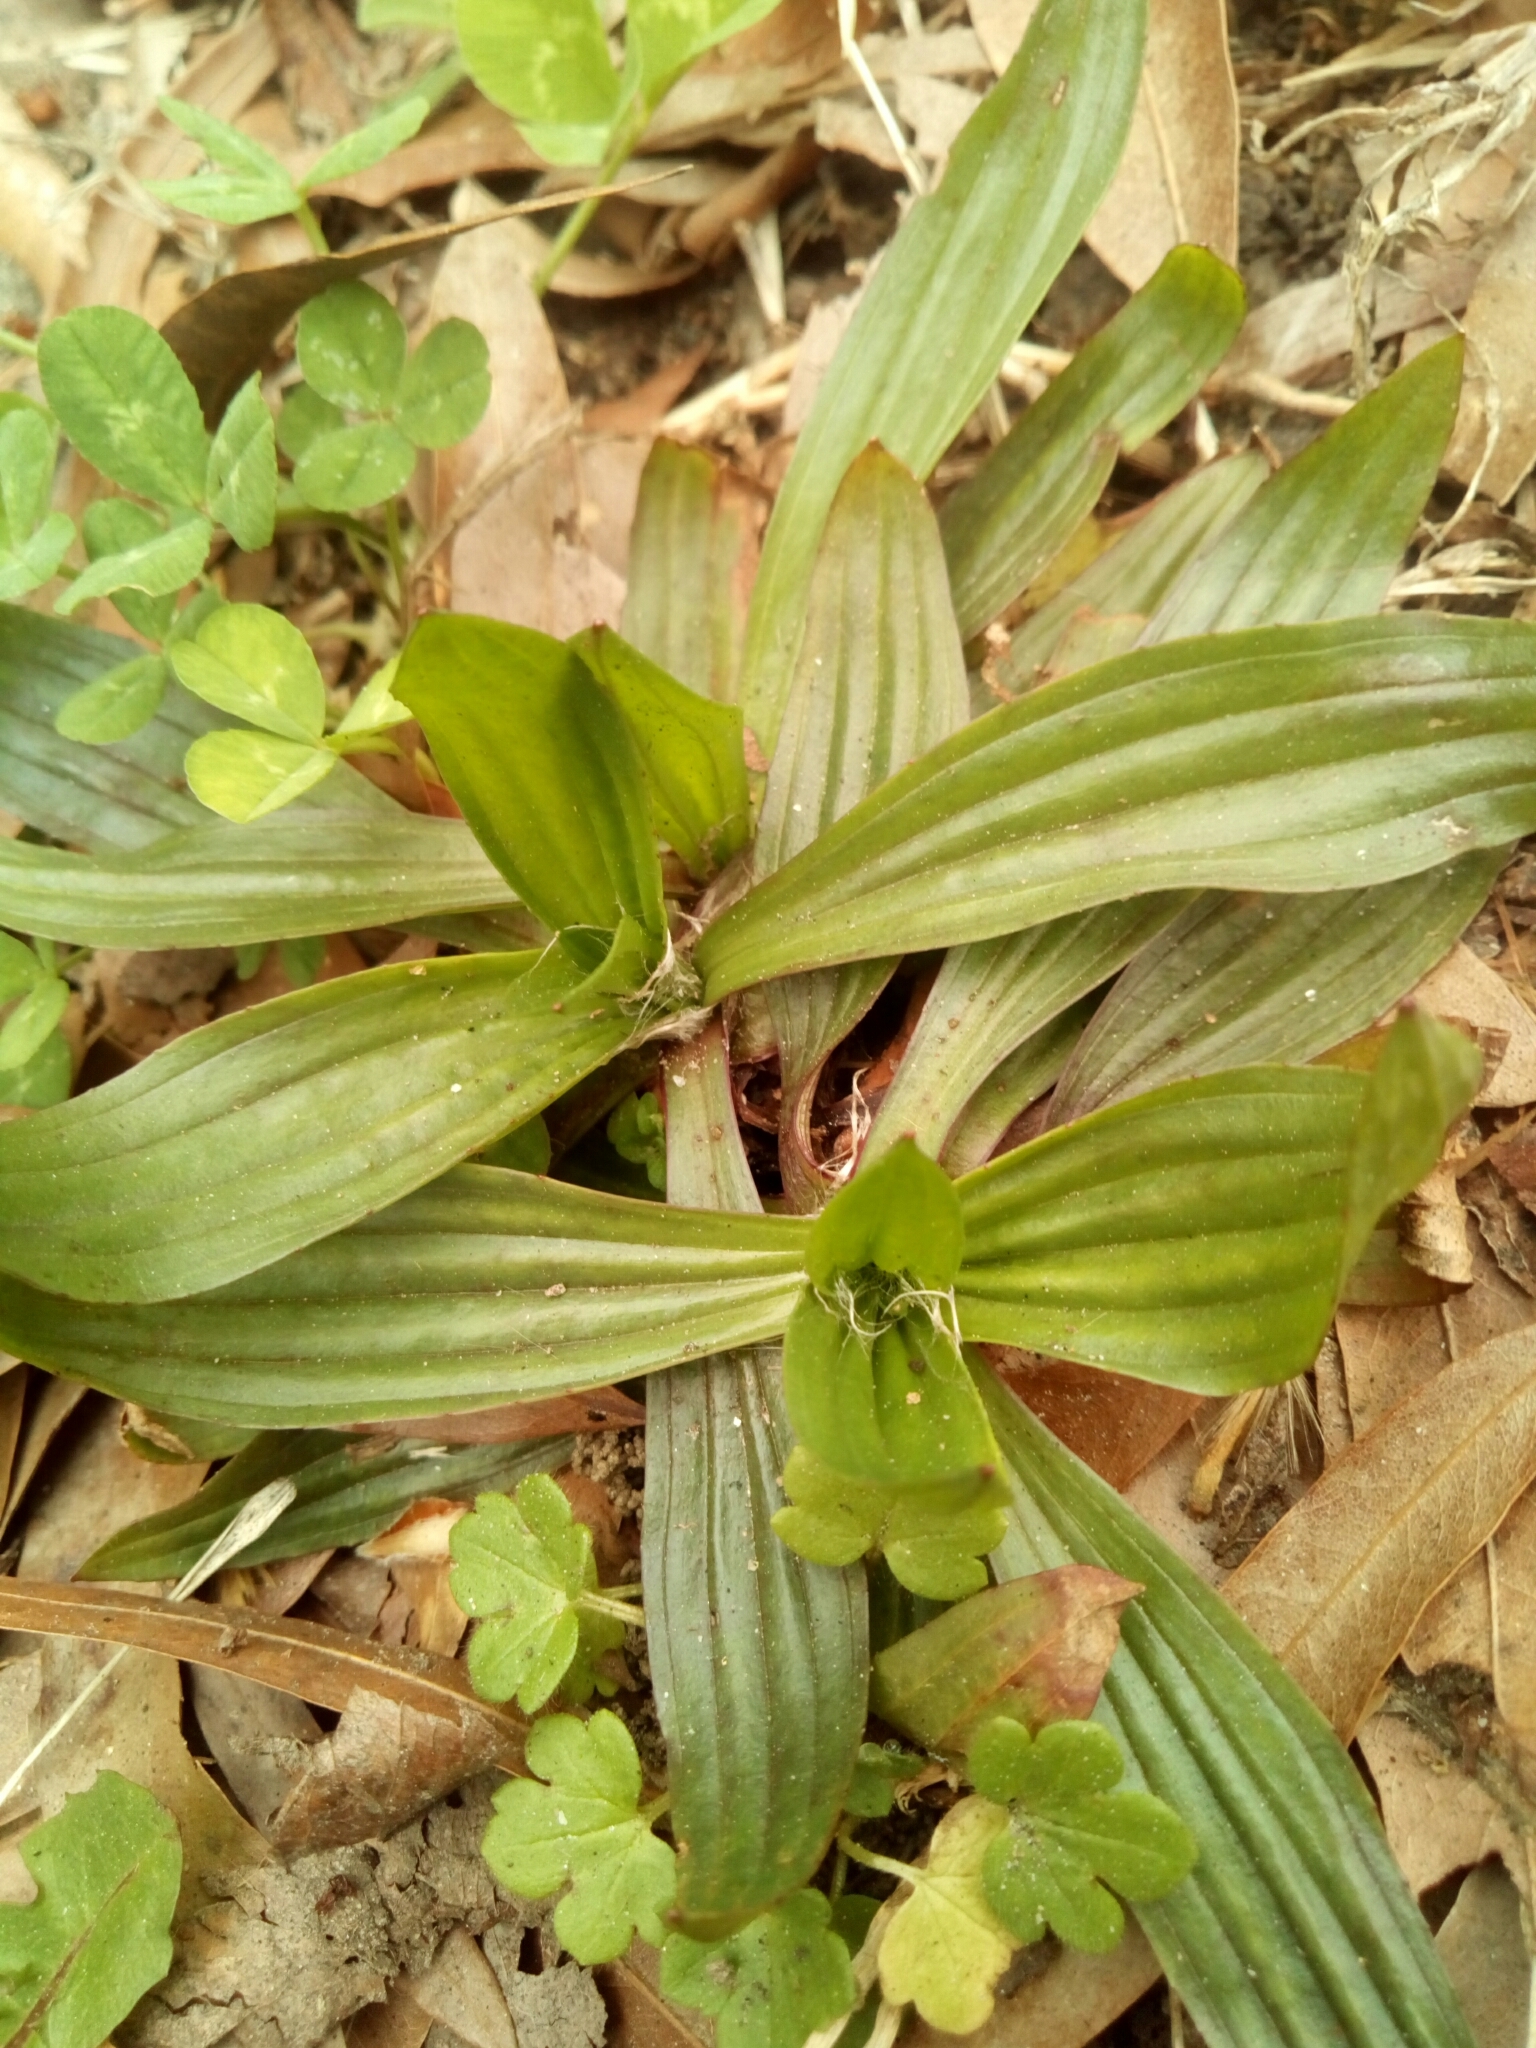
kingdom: Plantae
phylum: Tracheophyta
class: Magnoliopsida
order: Lamiales
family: Plantaginaceae
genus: Plantago
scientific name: Plantago lanceolata
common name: Ribwort plantain
